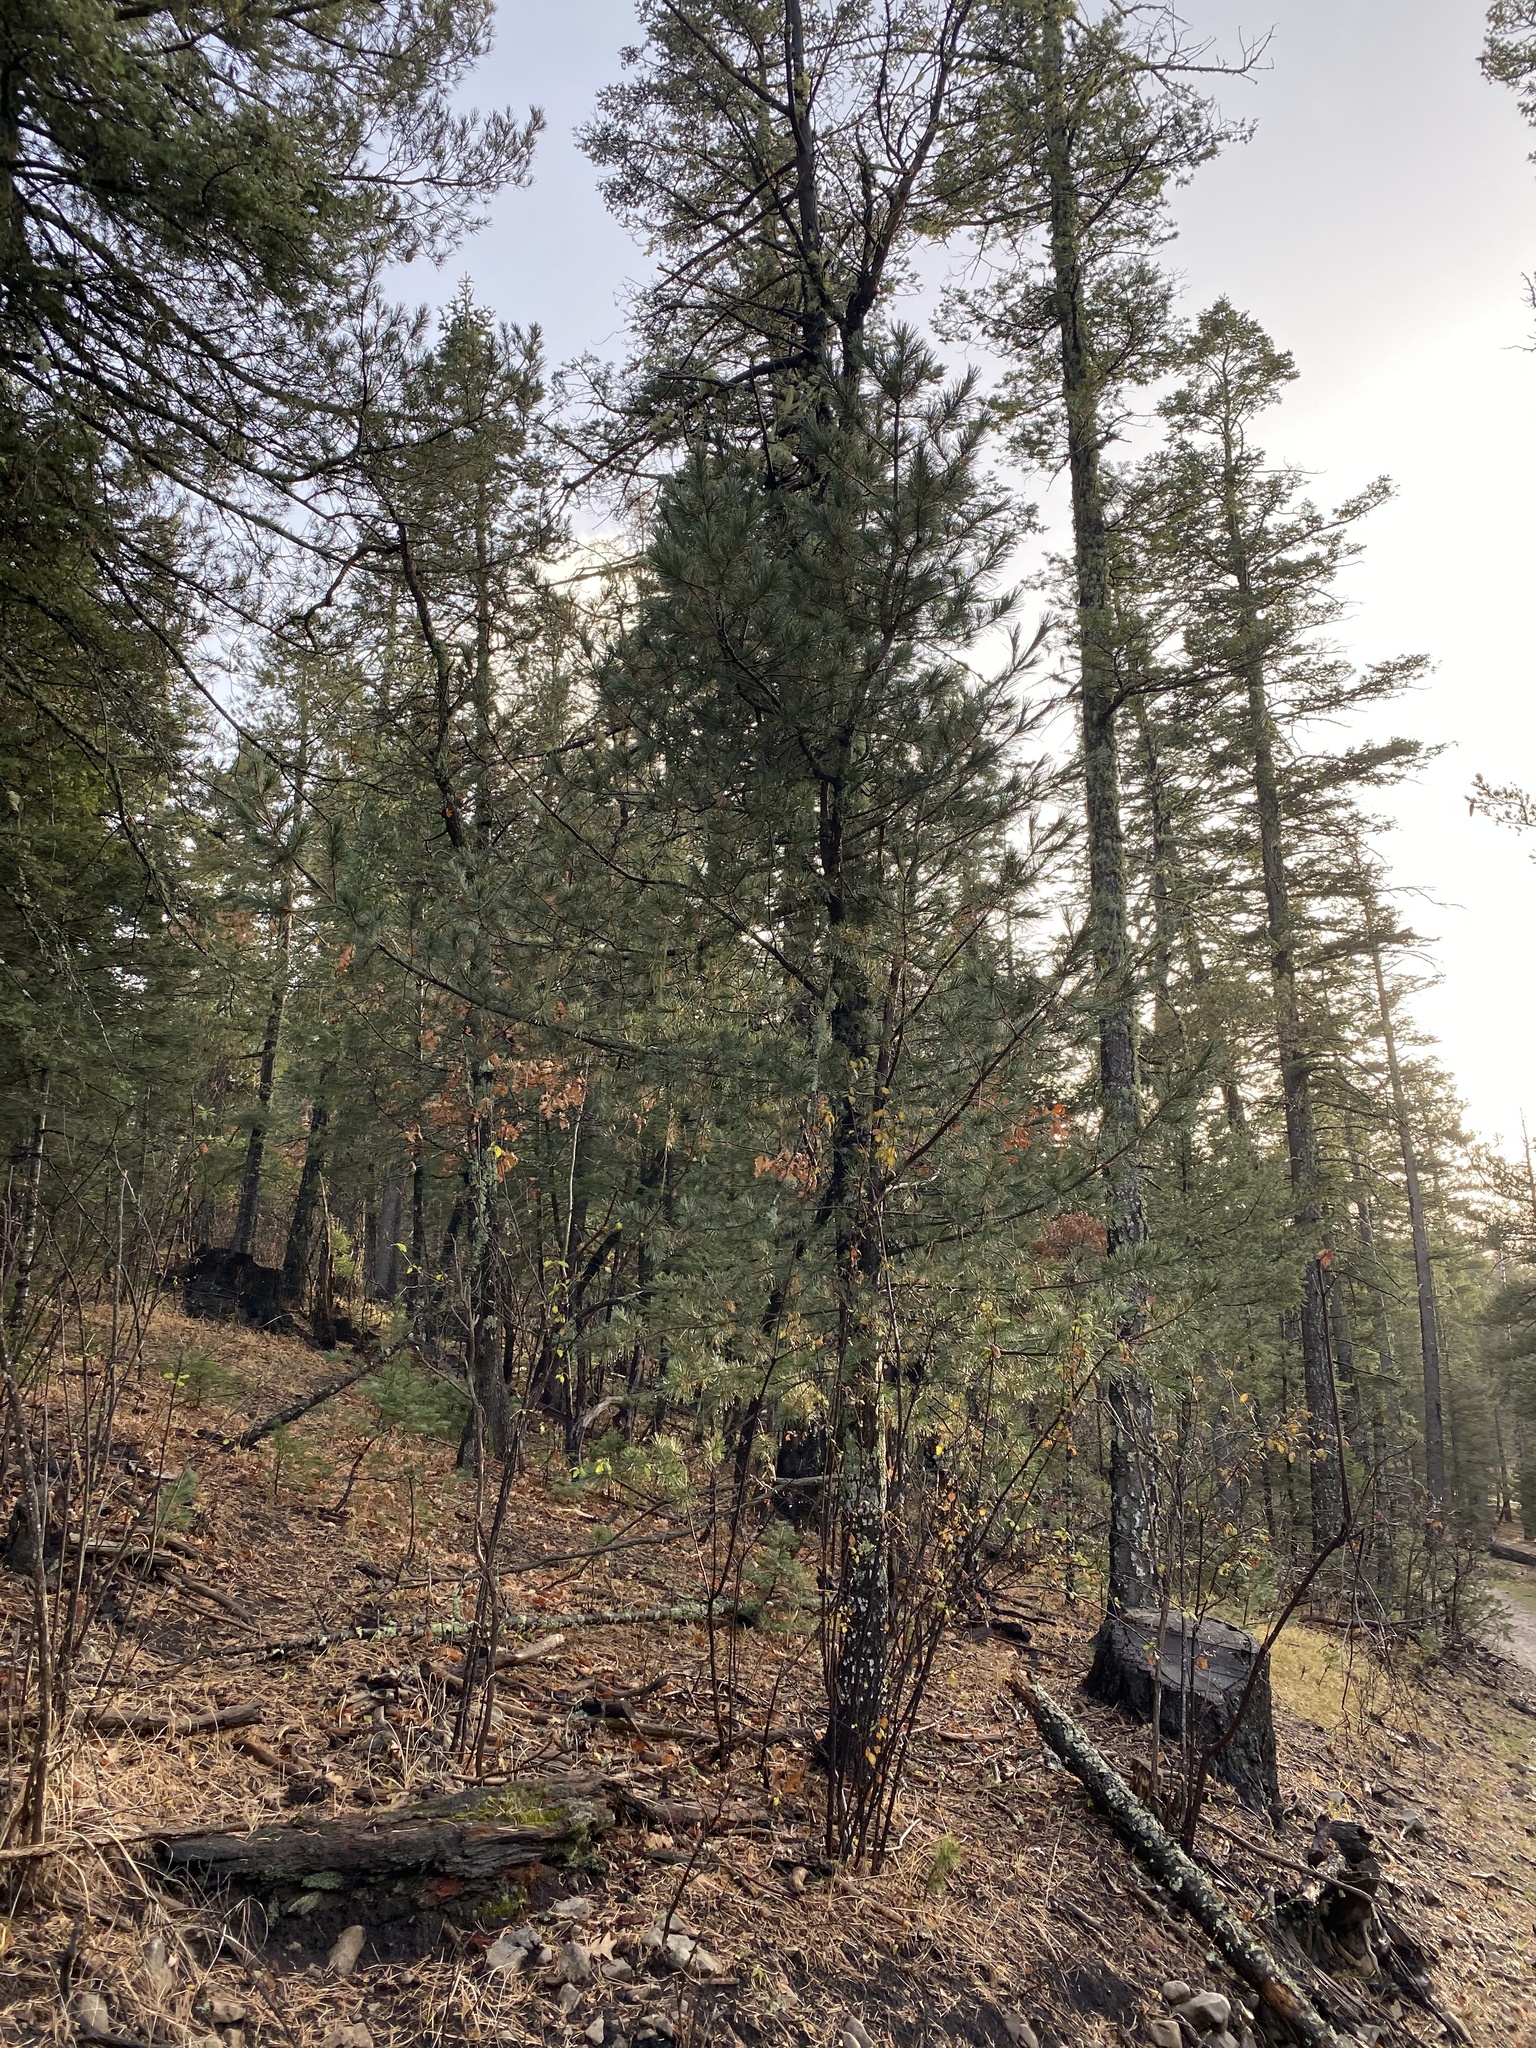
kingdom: Plantae
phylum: Tracheophyta
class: Pinopsida
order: Pinales
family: Pinaceae
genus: Pinus
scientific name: Pinus strobiformis
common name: Southwestern white pine
